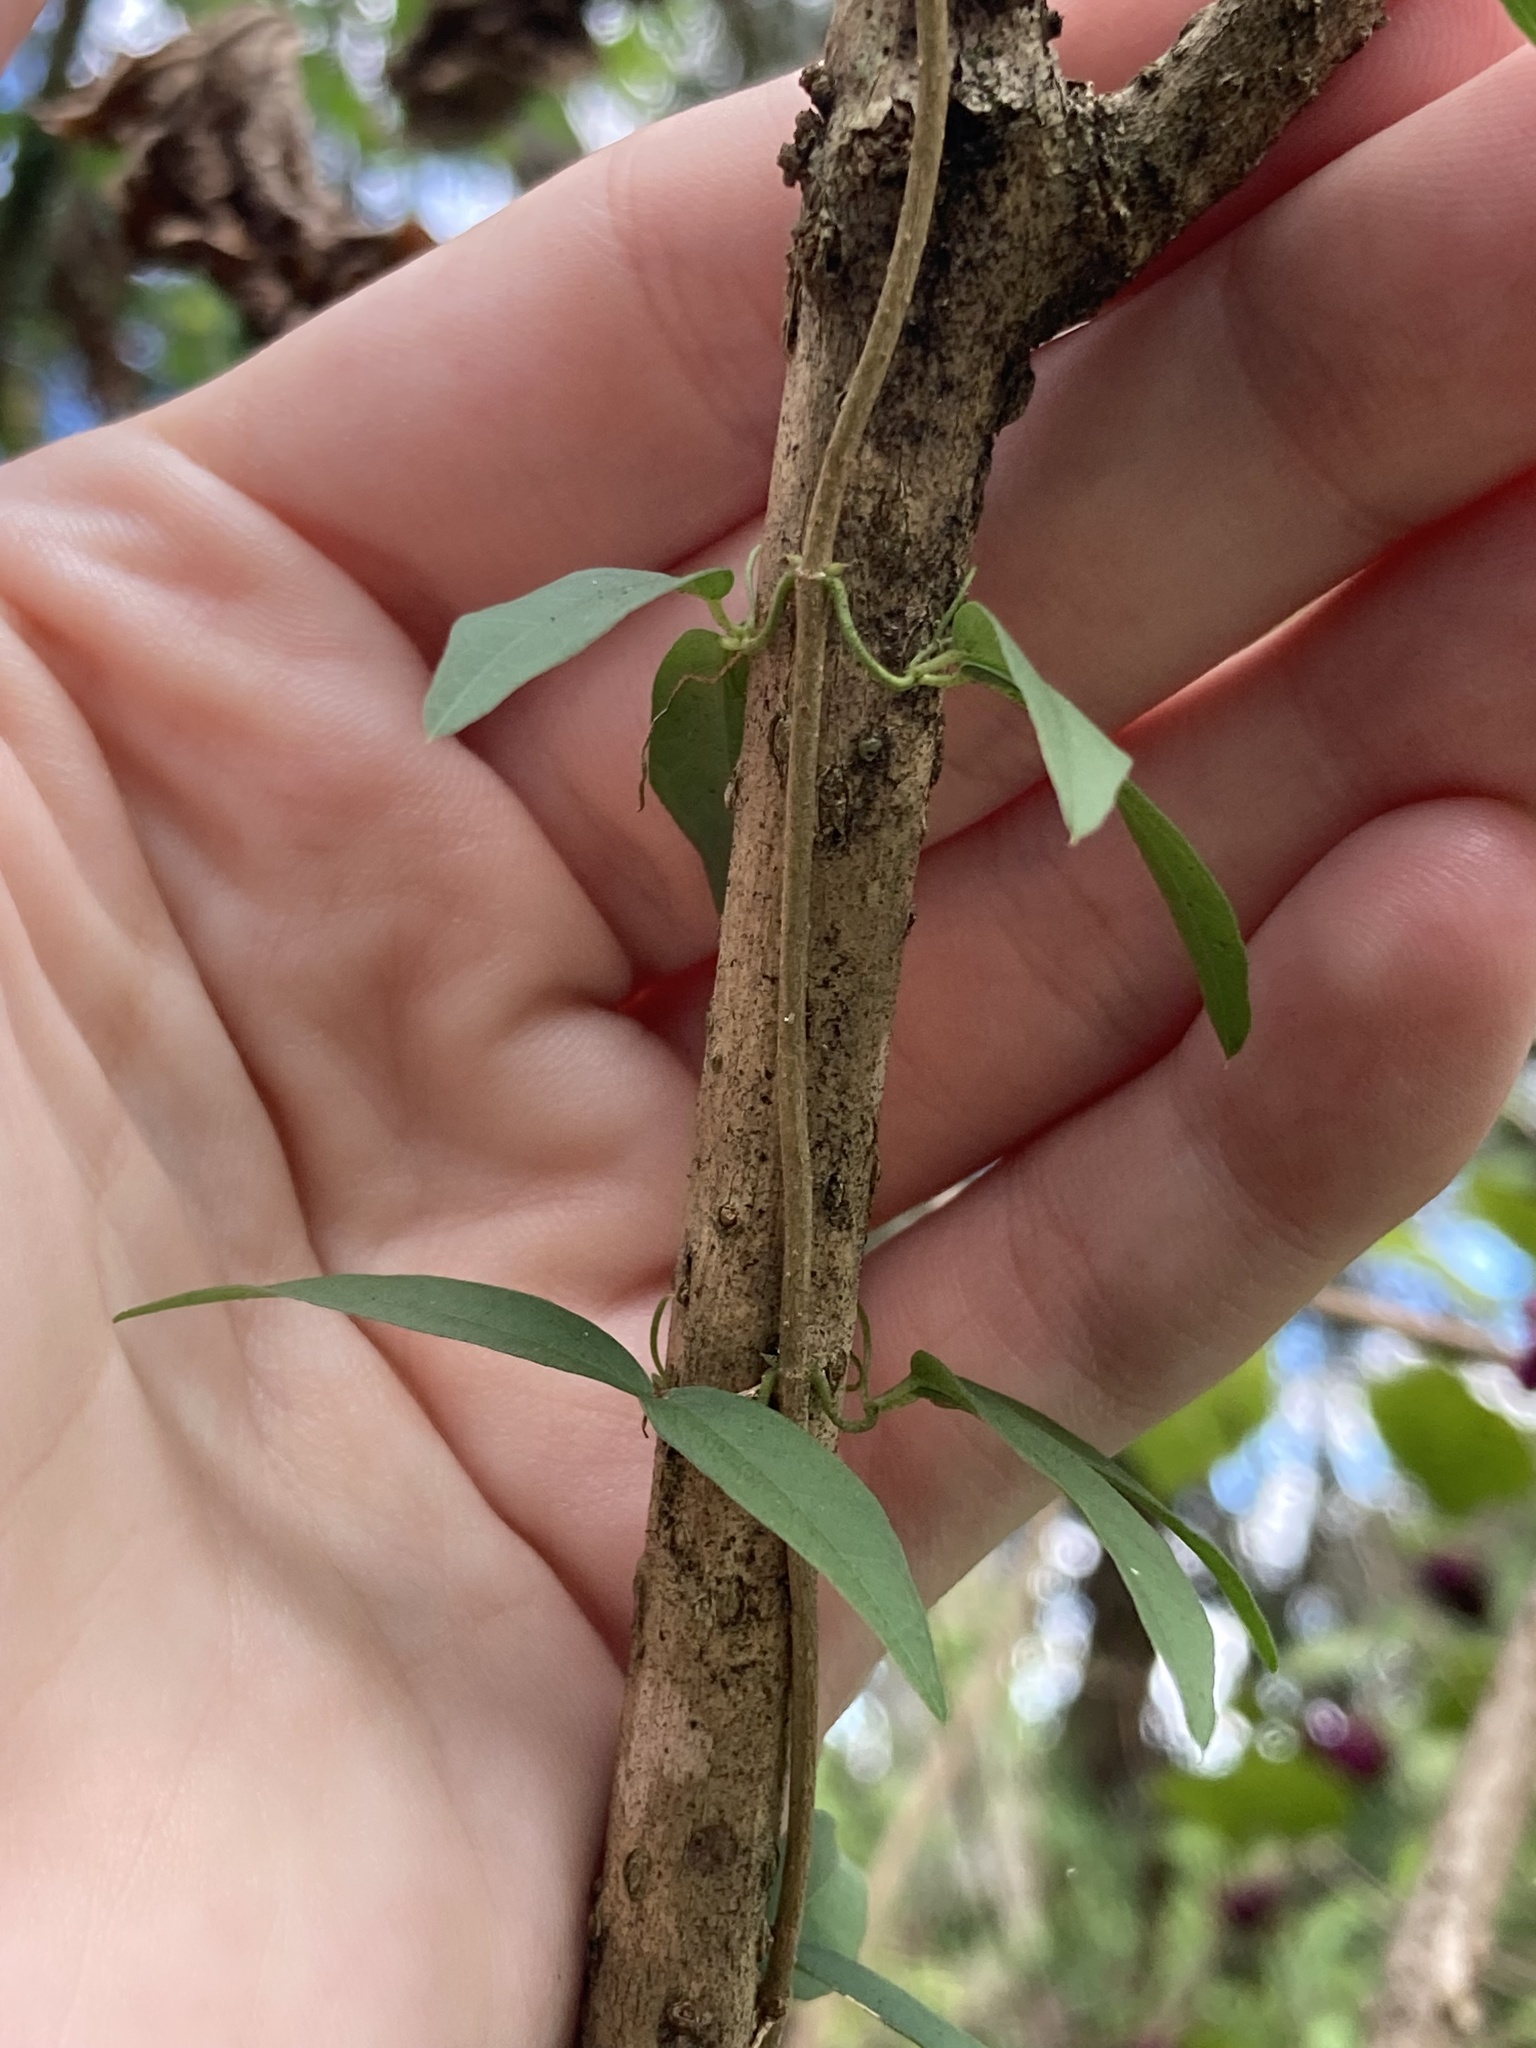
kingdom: Plantae
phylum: Tracheophyta
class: Magnoliopsida
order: Lamiales
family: Bignoniaceae
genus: Dolichandra
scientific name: Dolichandra unguis-cati
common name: Catclaw vine
